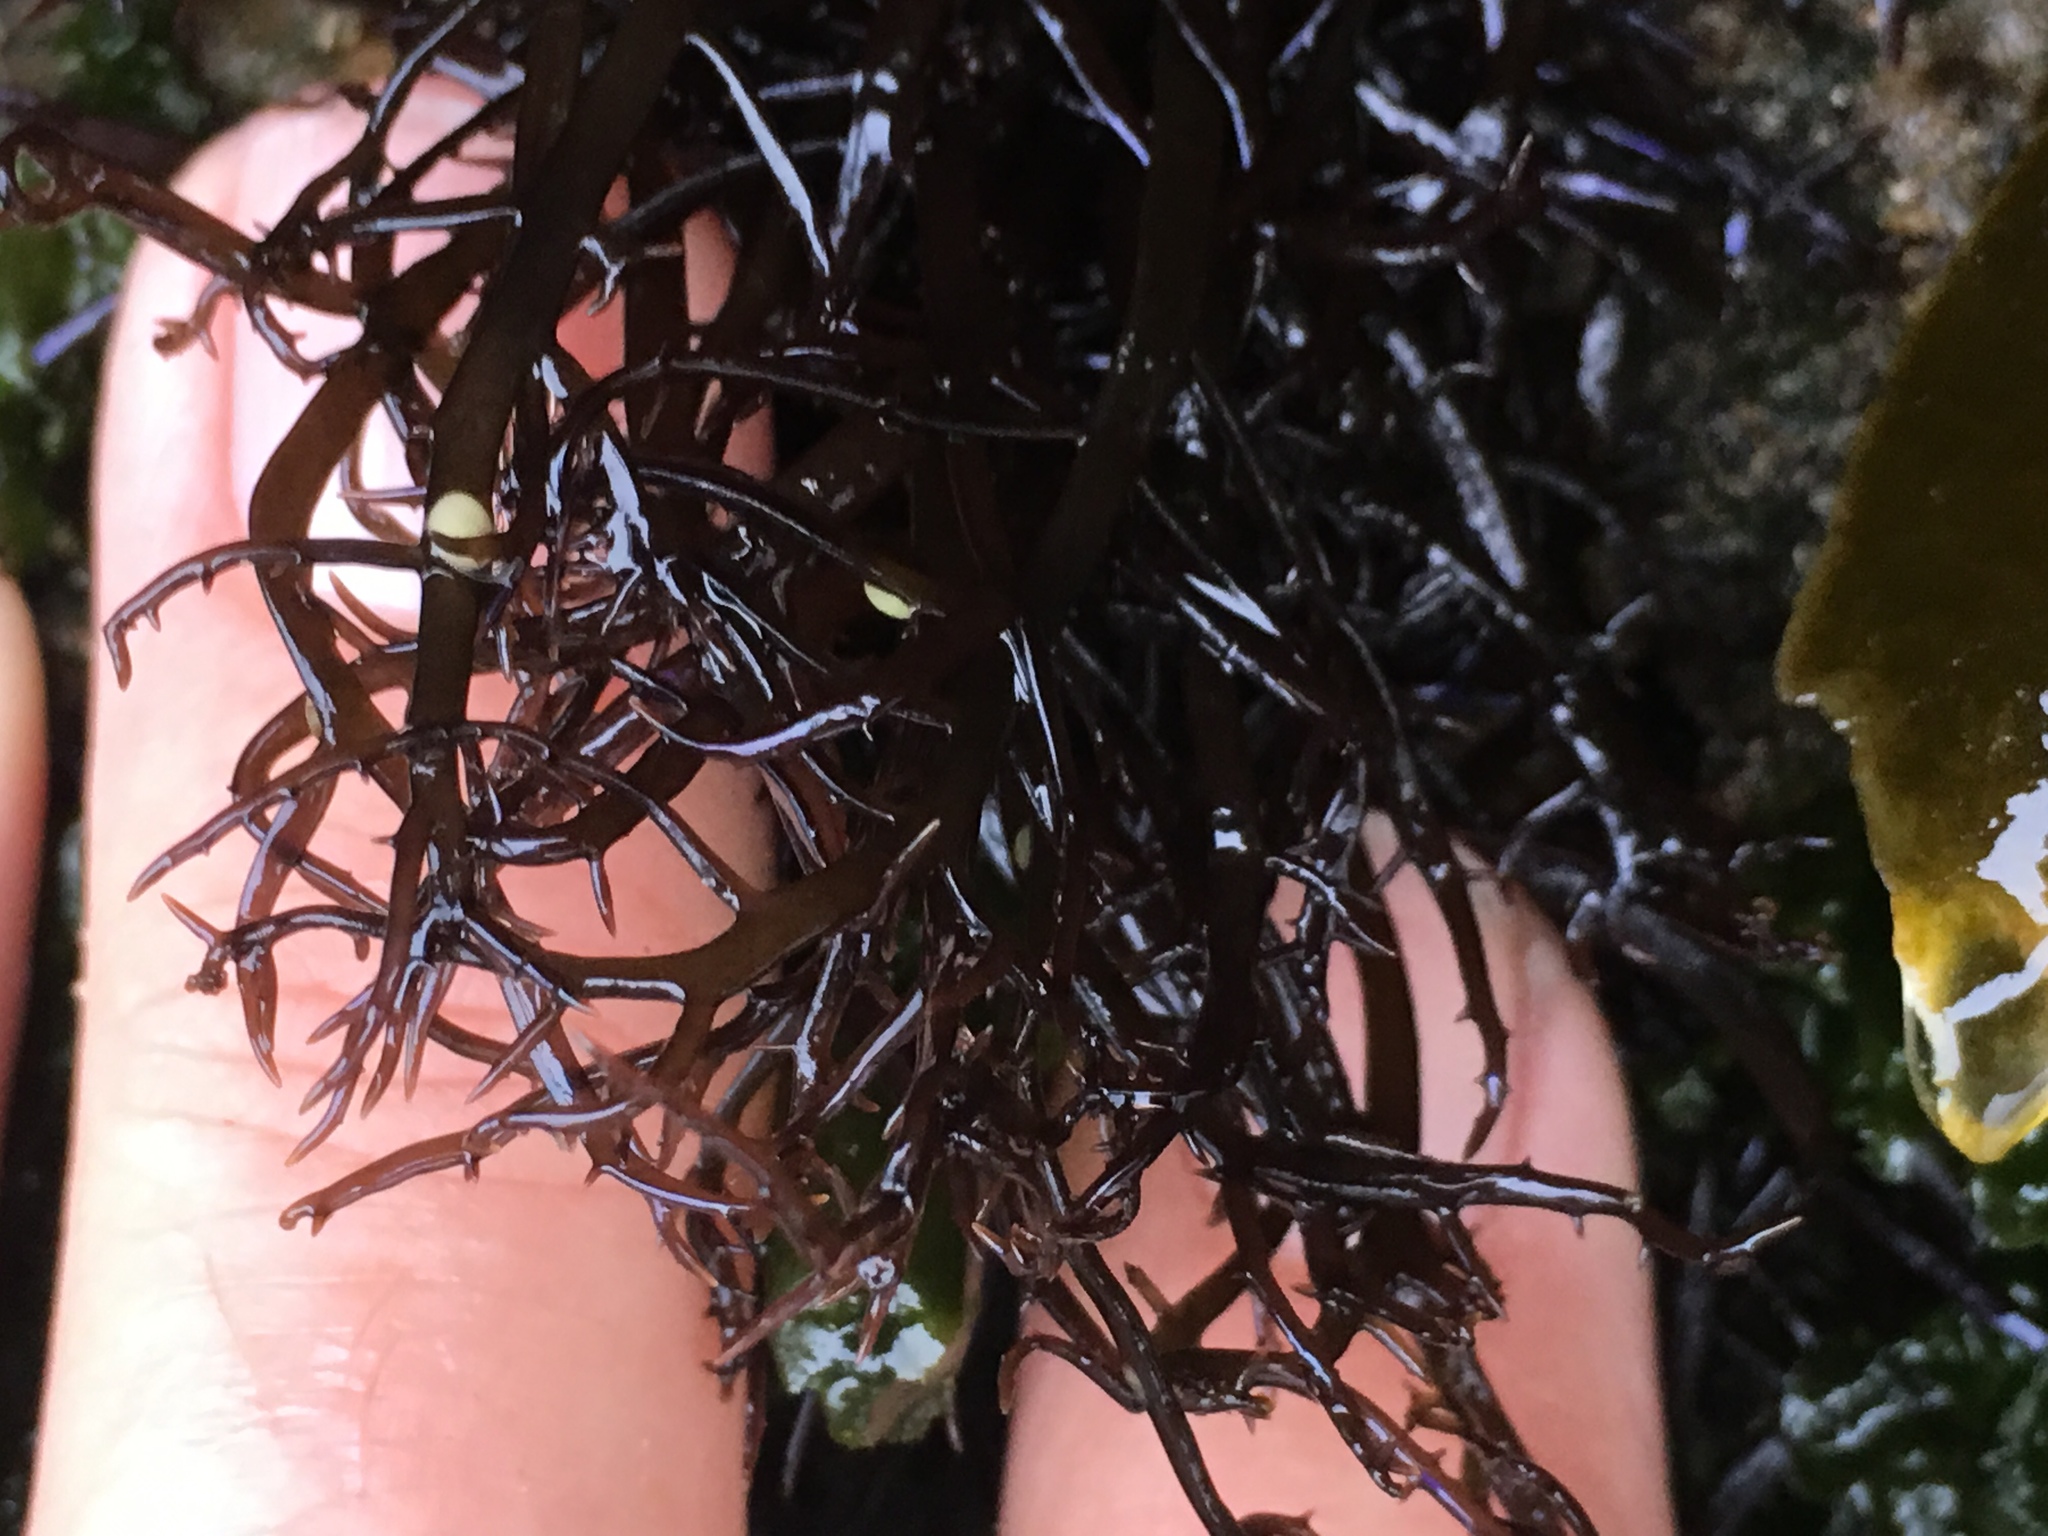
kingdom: Plantae
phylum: Rhodophyta
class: Florideophyceae
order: Gigartinales
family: Gigartinaceae
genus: Chondracanthus
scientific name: Chondracanthus canaliculatus
